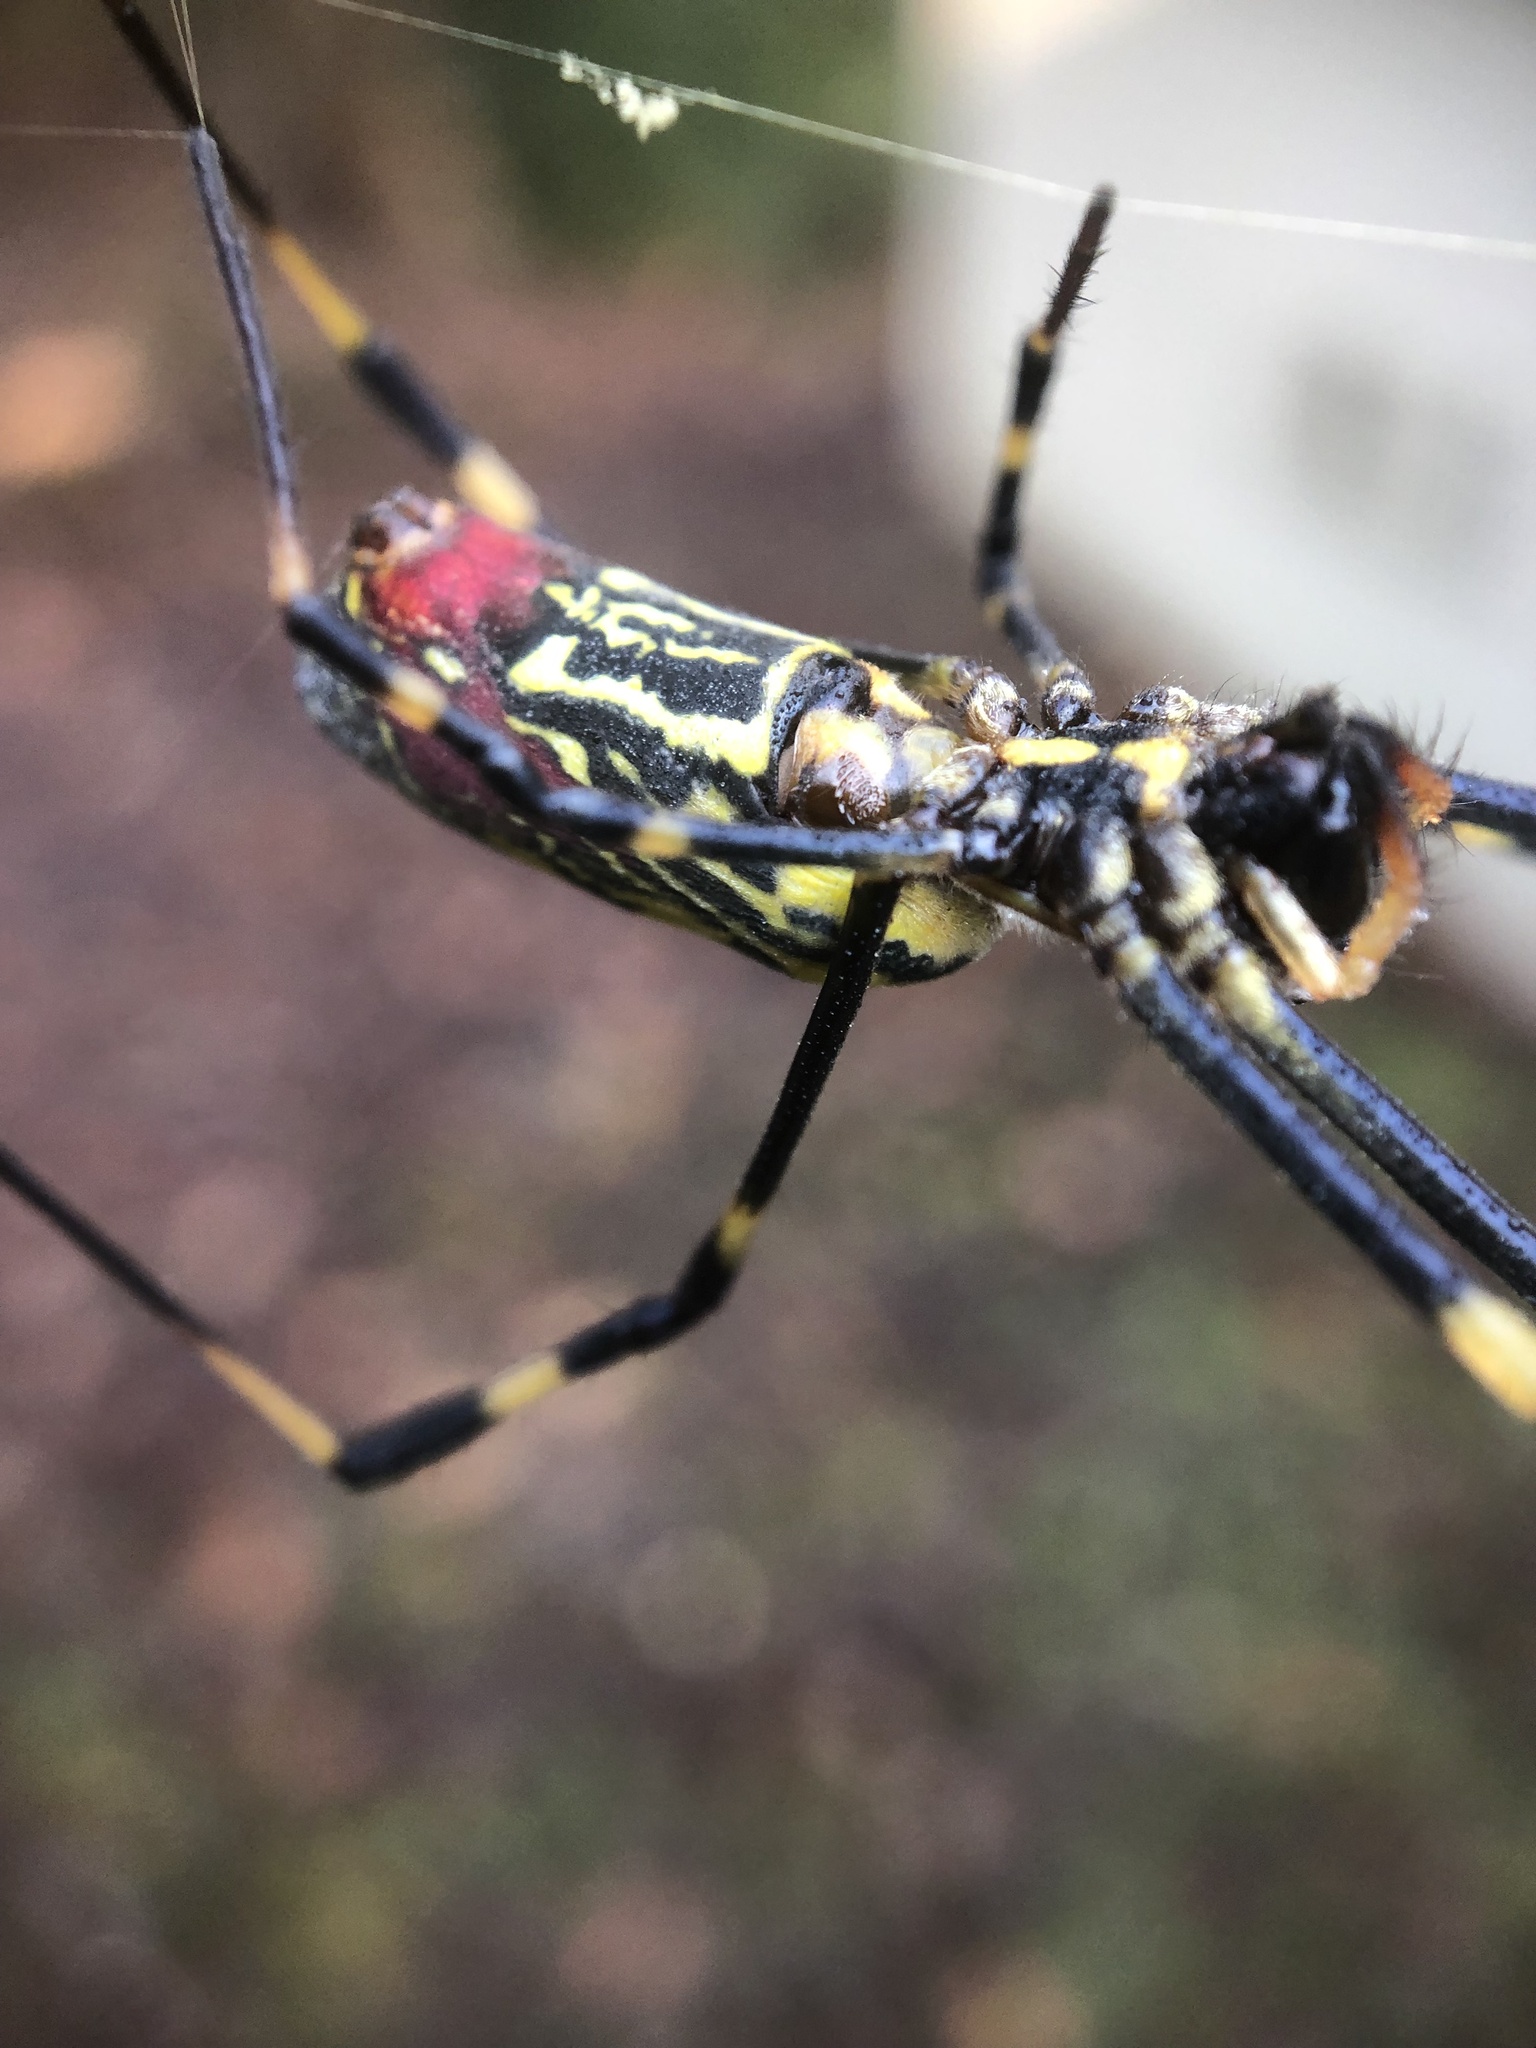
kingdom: Animalia
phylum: Arthropoda
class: Arachnida
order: Araneae
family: Araneidae
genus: Trichonephila
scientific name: Trichonephila clavata
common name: Jorō spider
